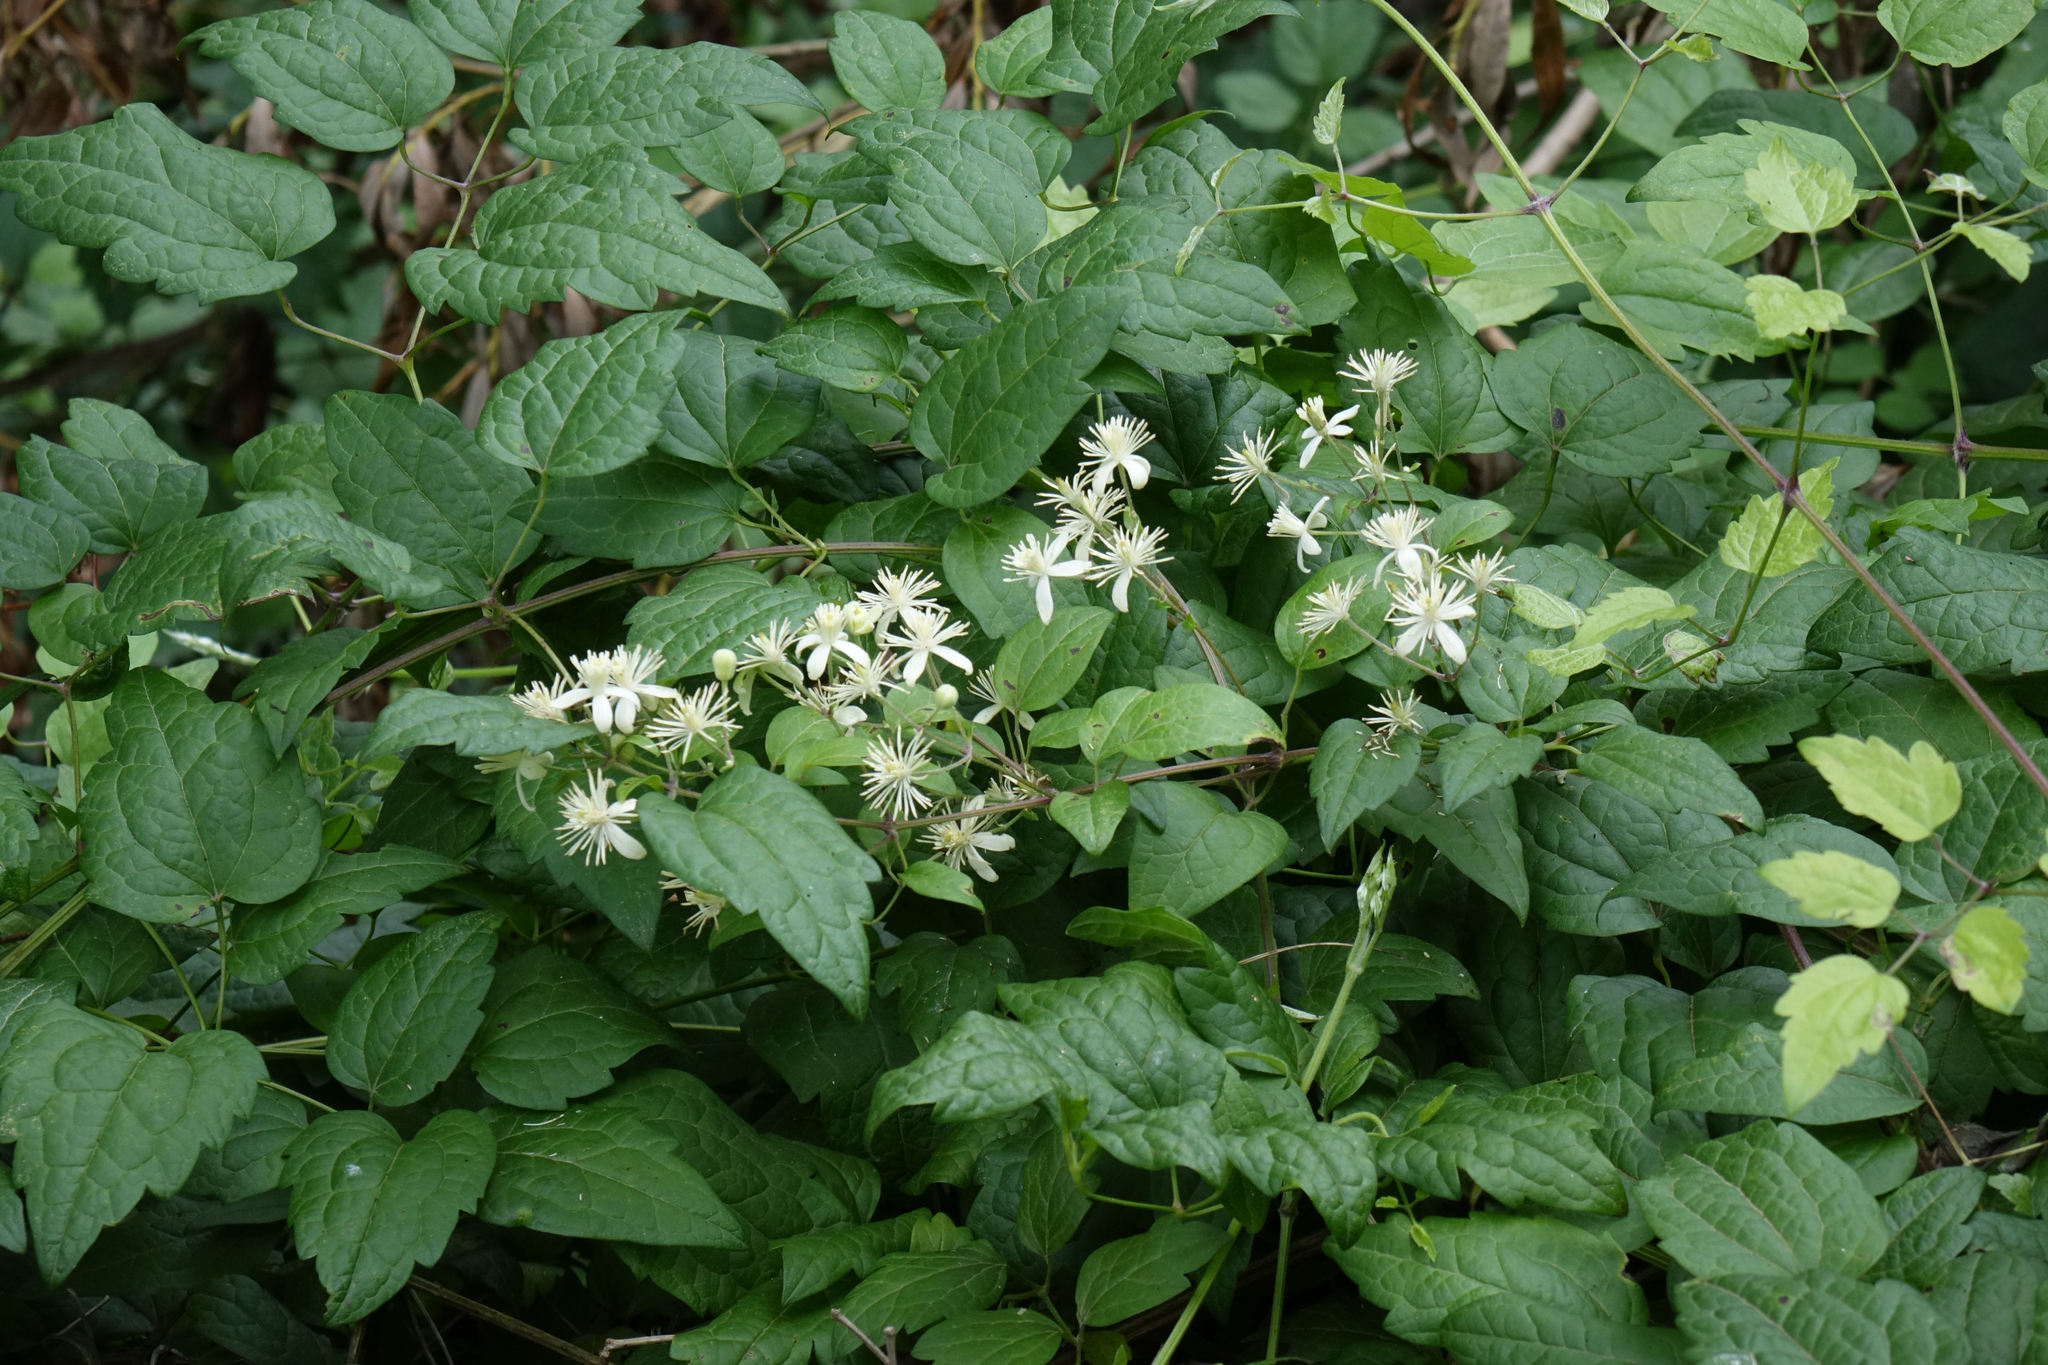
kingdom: Plantae
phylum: Tracheophyta
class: Magnoliopsida
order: Ranunculales
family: Ranunculaceae
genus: Clematis
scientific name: Clematis vitalba
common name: Evergreen clematis
